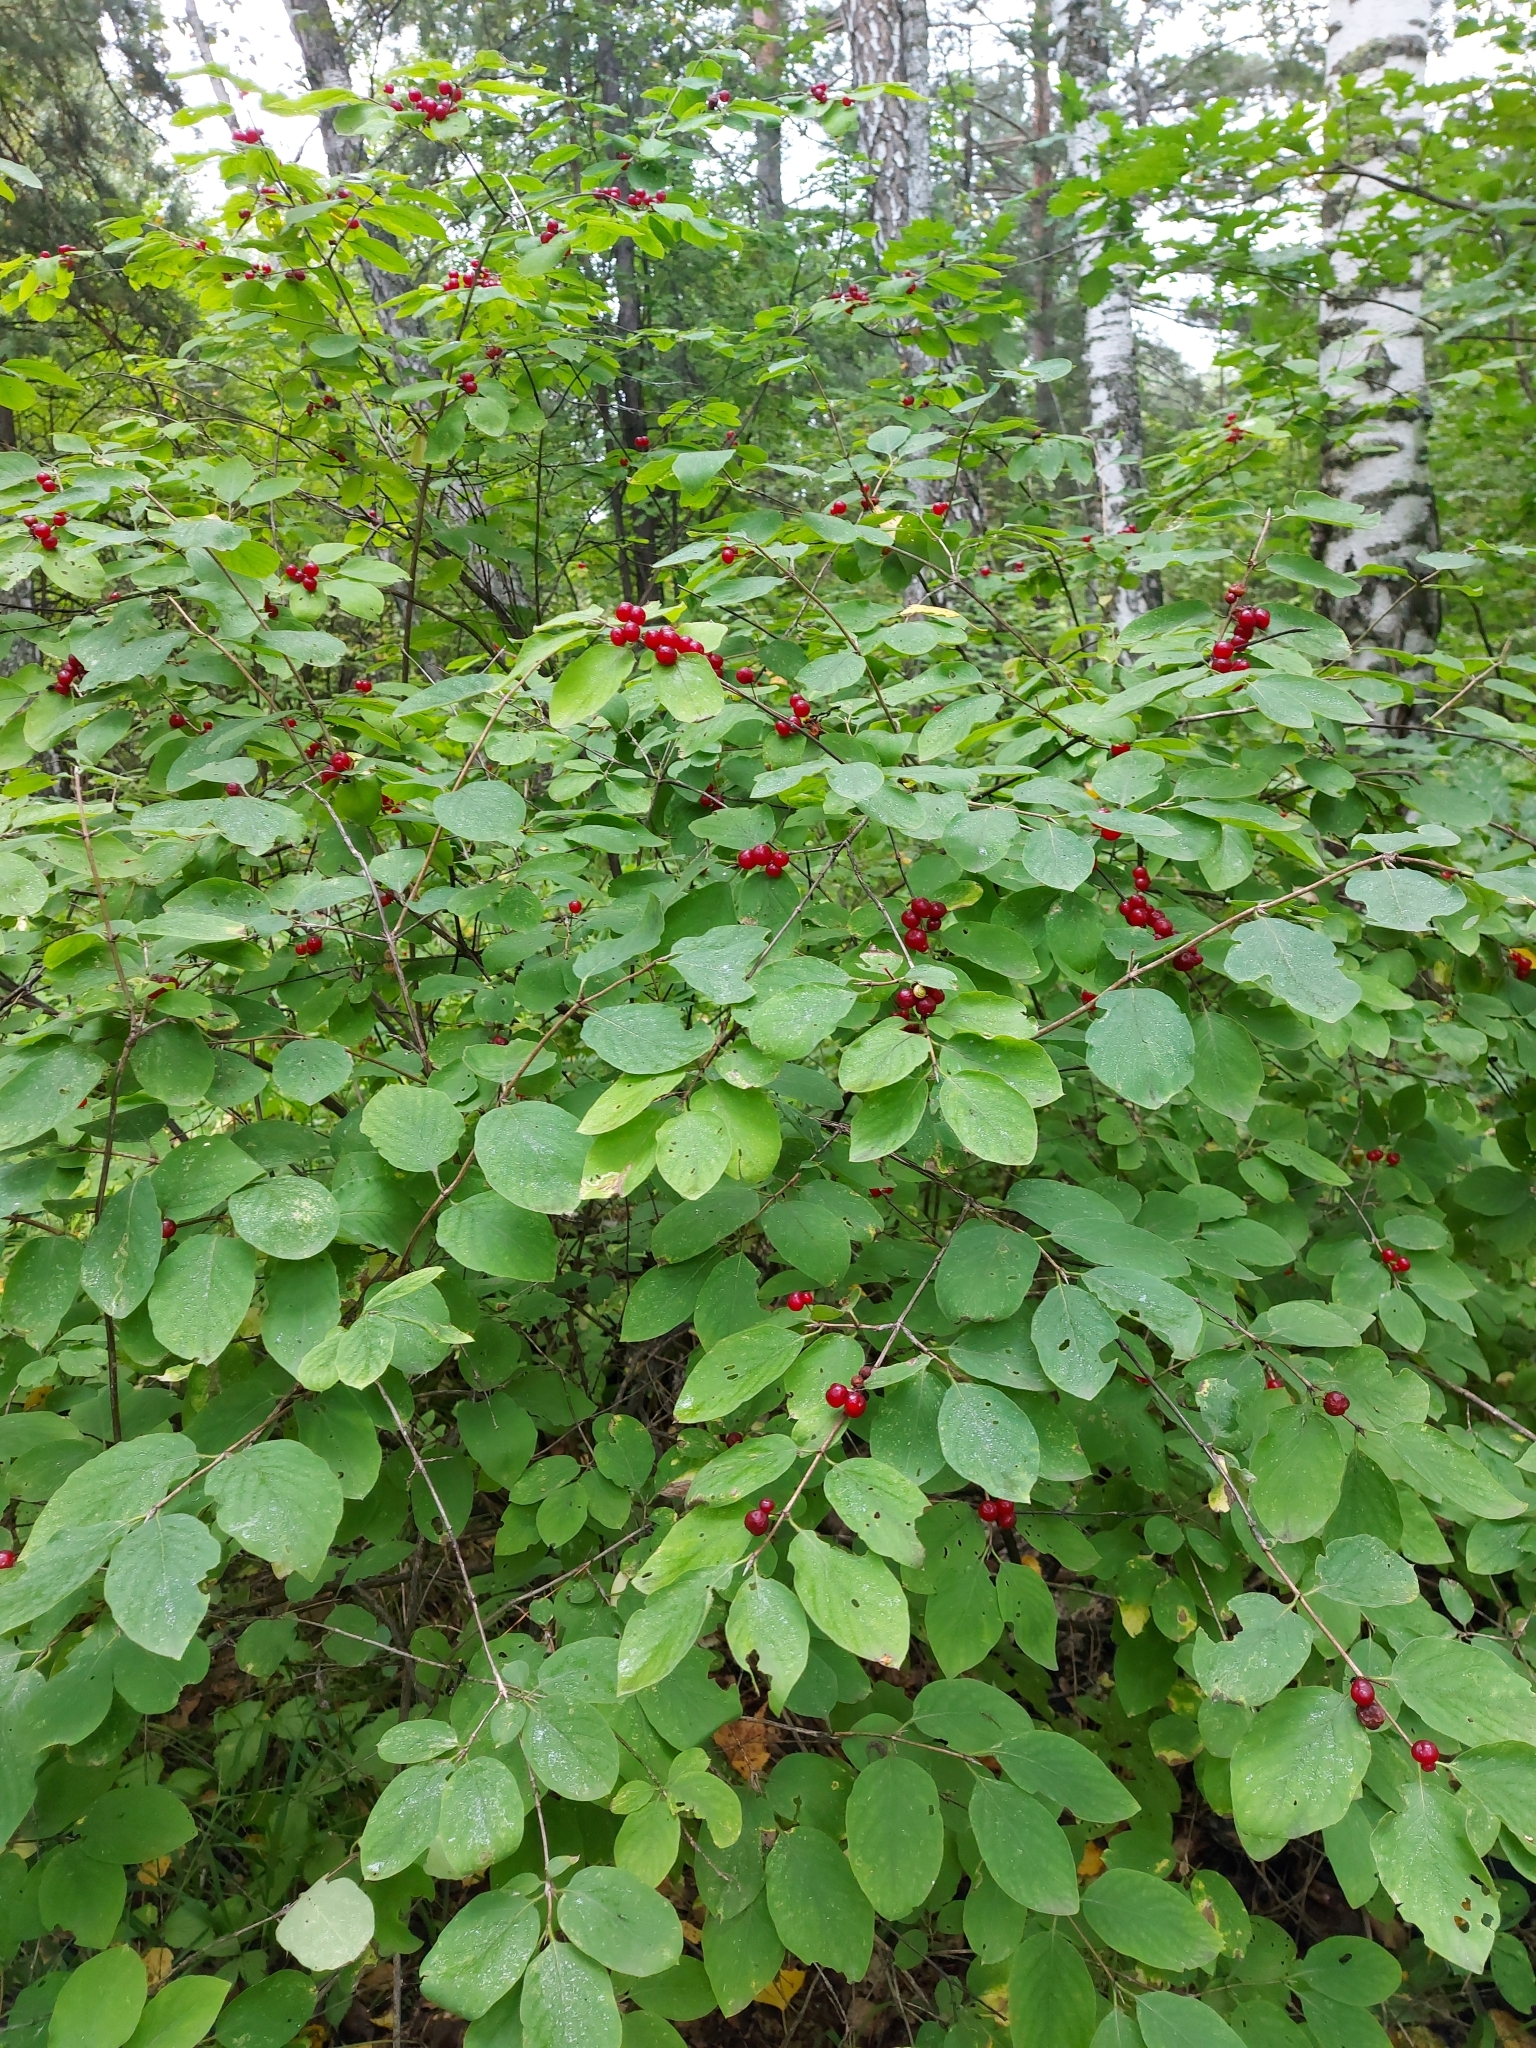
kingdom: Plantae
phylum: Tracheophyta
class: Magnoliopsida
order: Dipsacales
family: Caprifoliaceae
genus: Lonicera
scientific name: Lonicera xylosteum
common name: Fly honeysuckle
